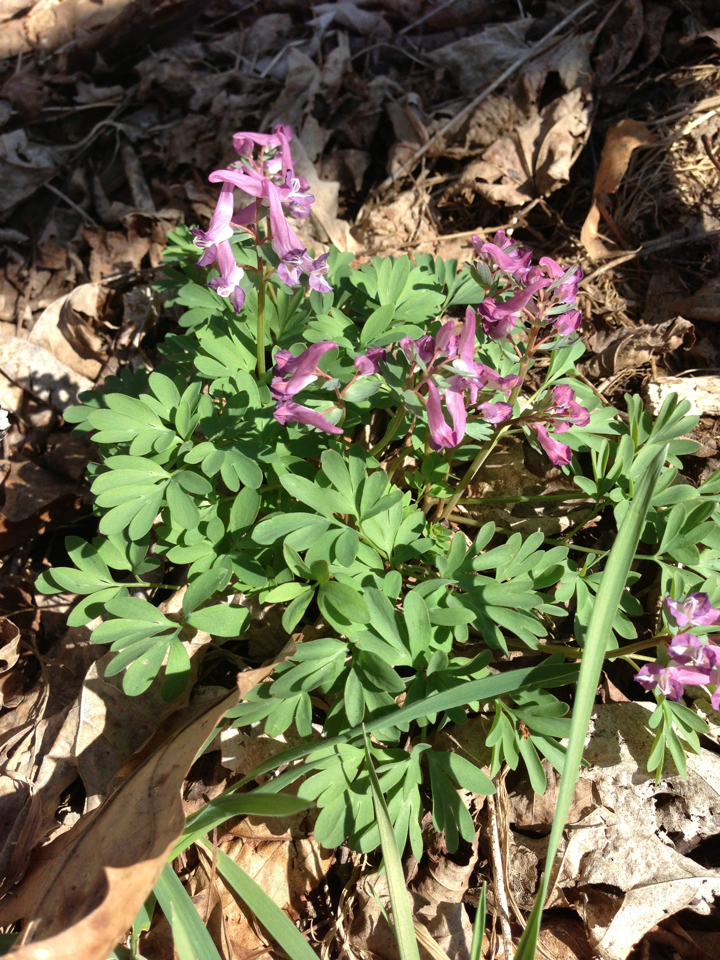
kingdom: Plantae
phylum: Tracheophyta
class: Magnoliopsida
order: Ranunculales
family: Papaveraceae
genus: Corydalis
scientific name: Corydalis solida
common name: Bird-in-a-bush
